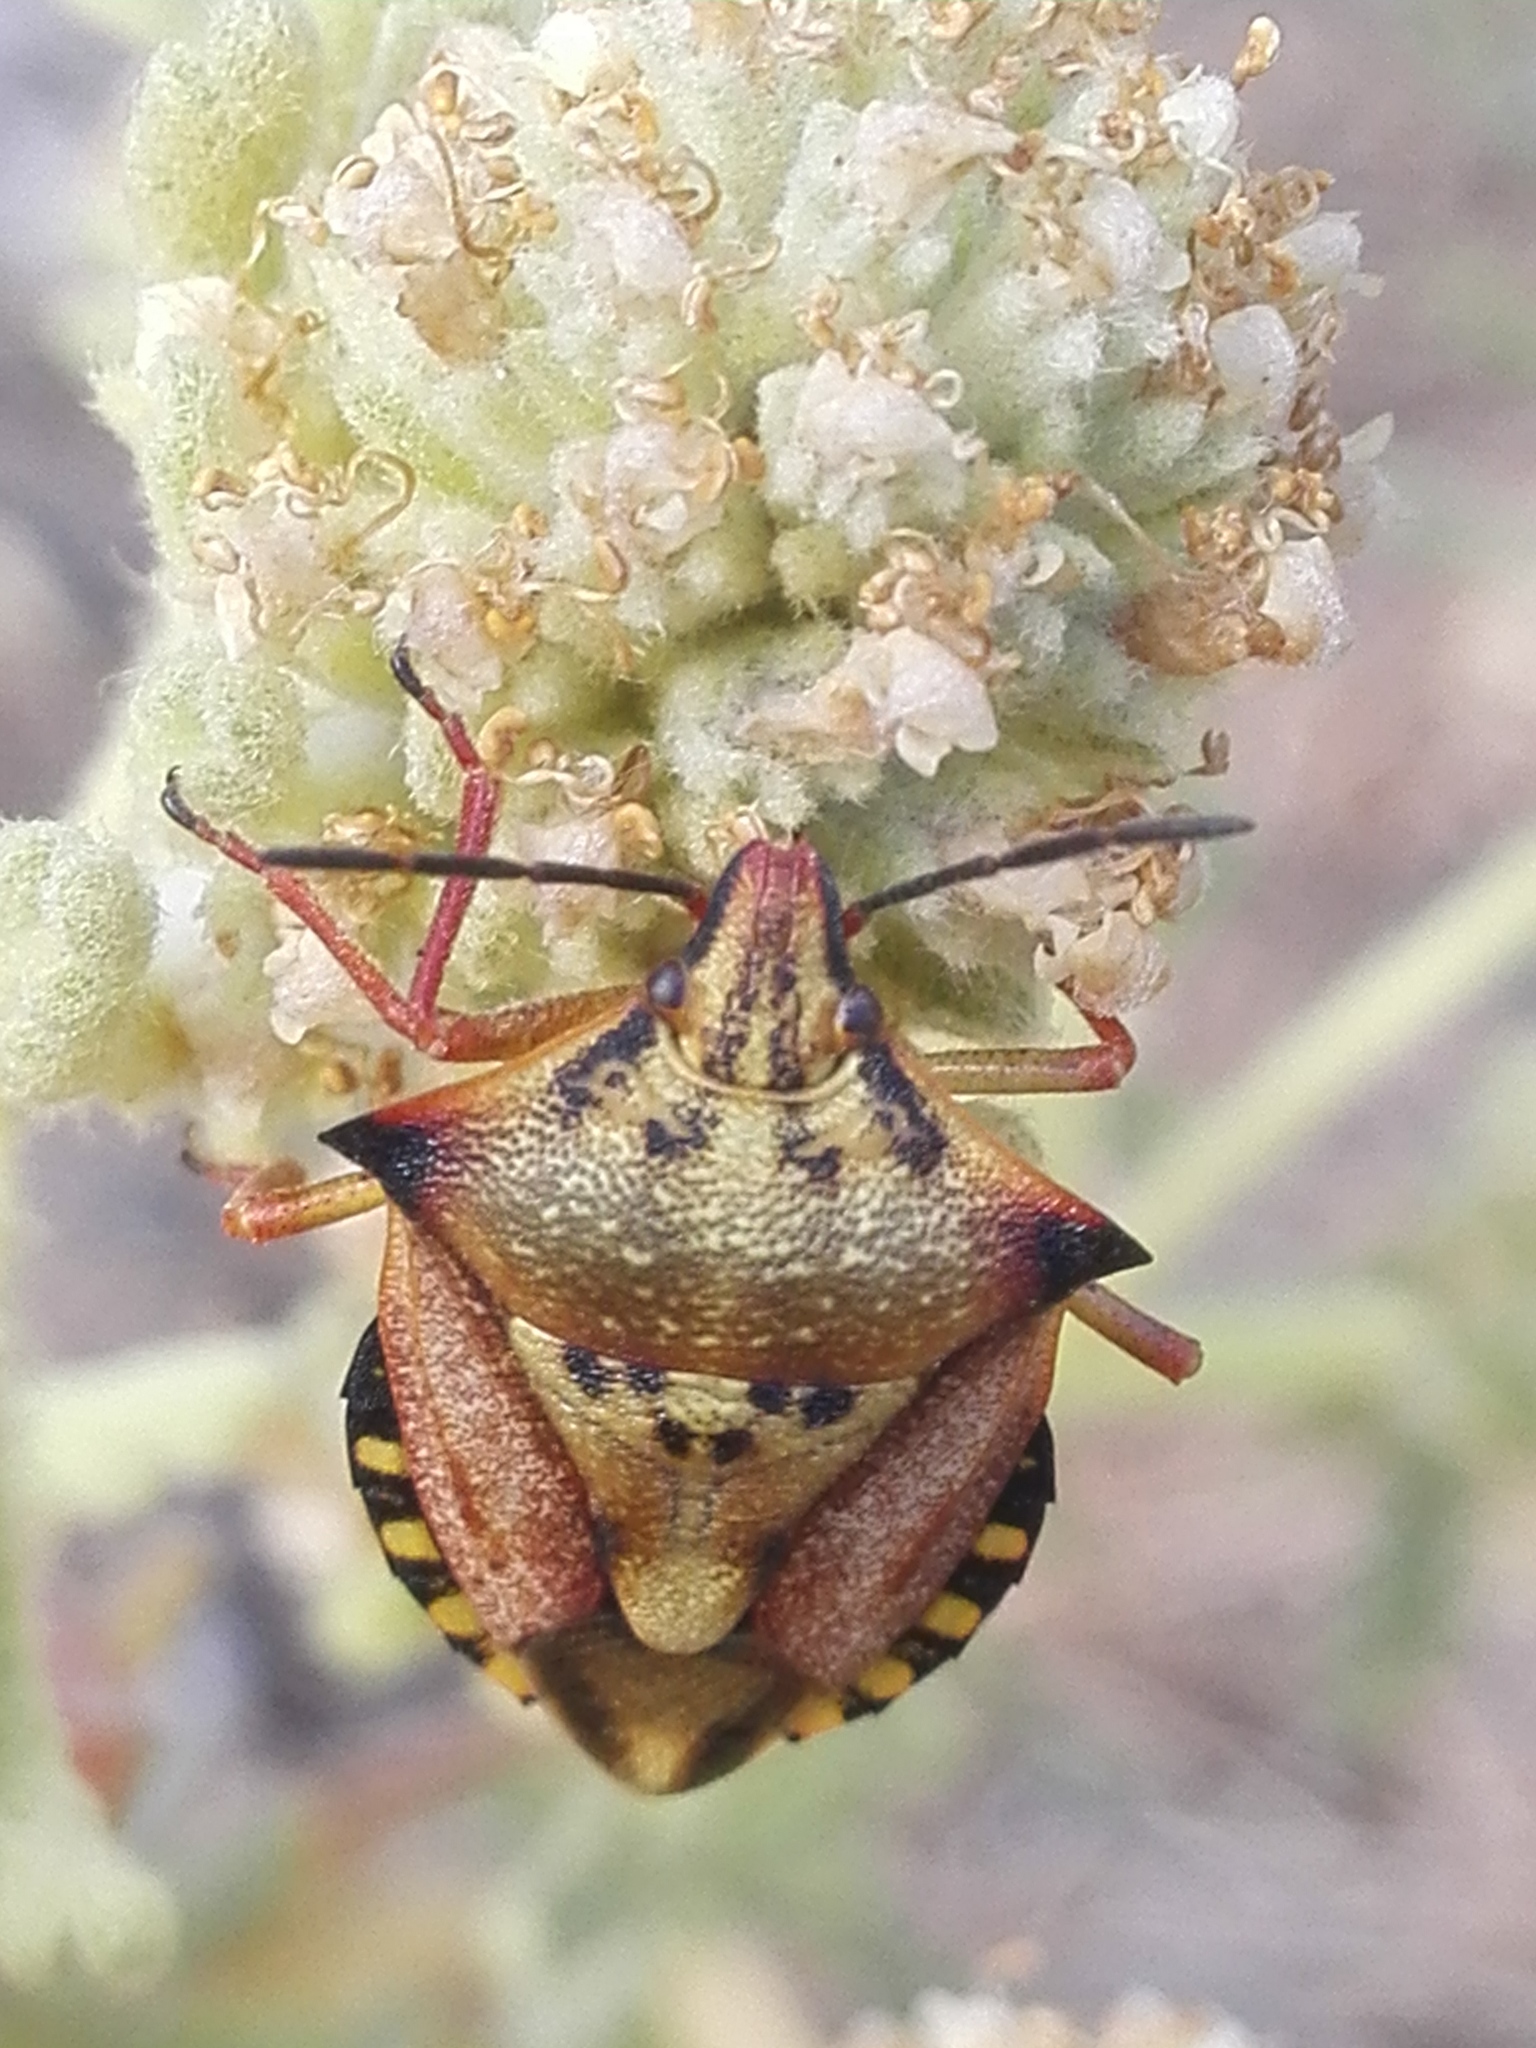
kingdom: Animalia
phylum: Arthropoda
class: Insecta
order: Hemiptera
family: Pentatomidae
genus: Carpocoris
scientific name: Carpocoris mediterraneus
